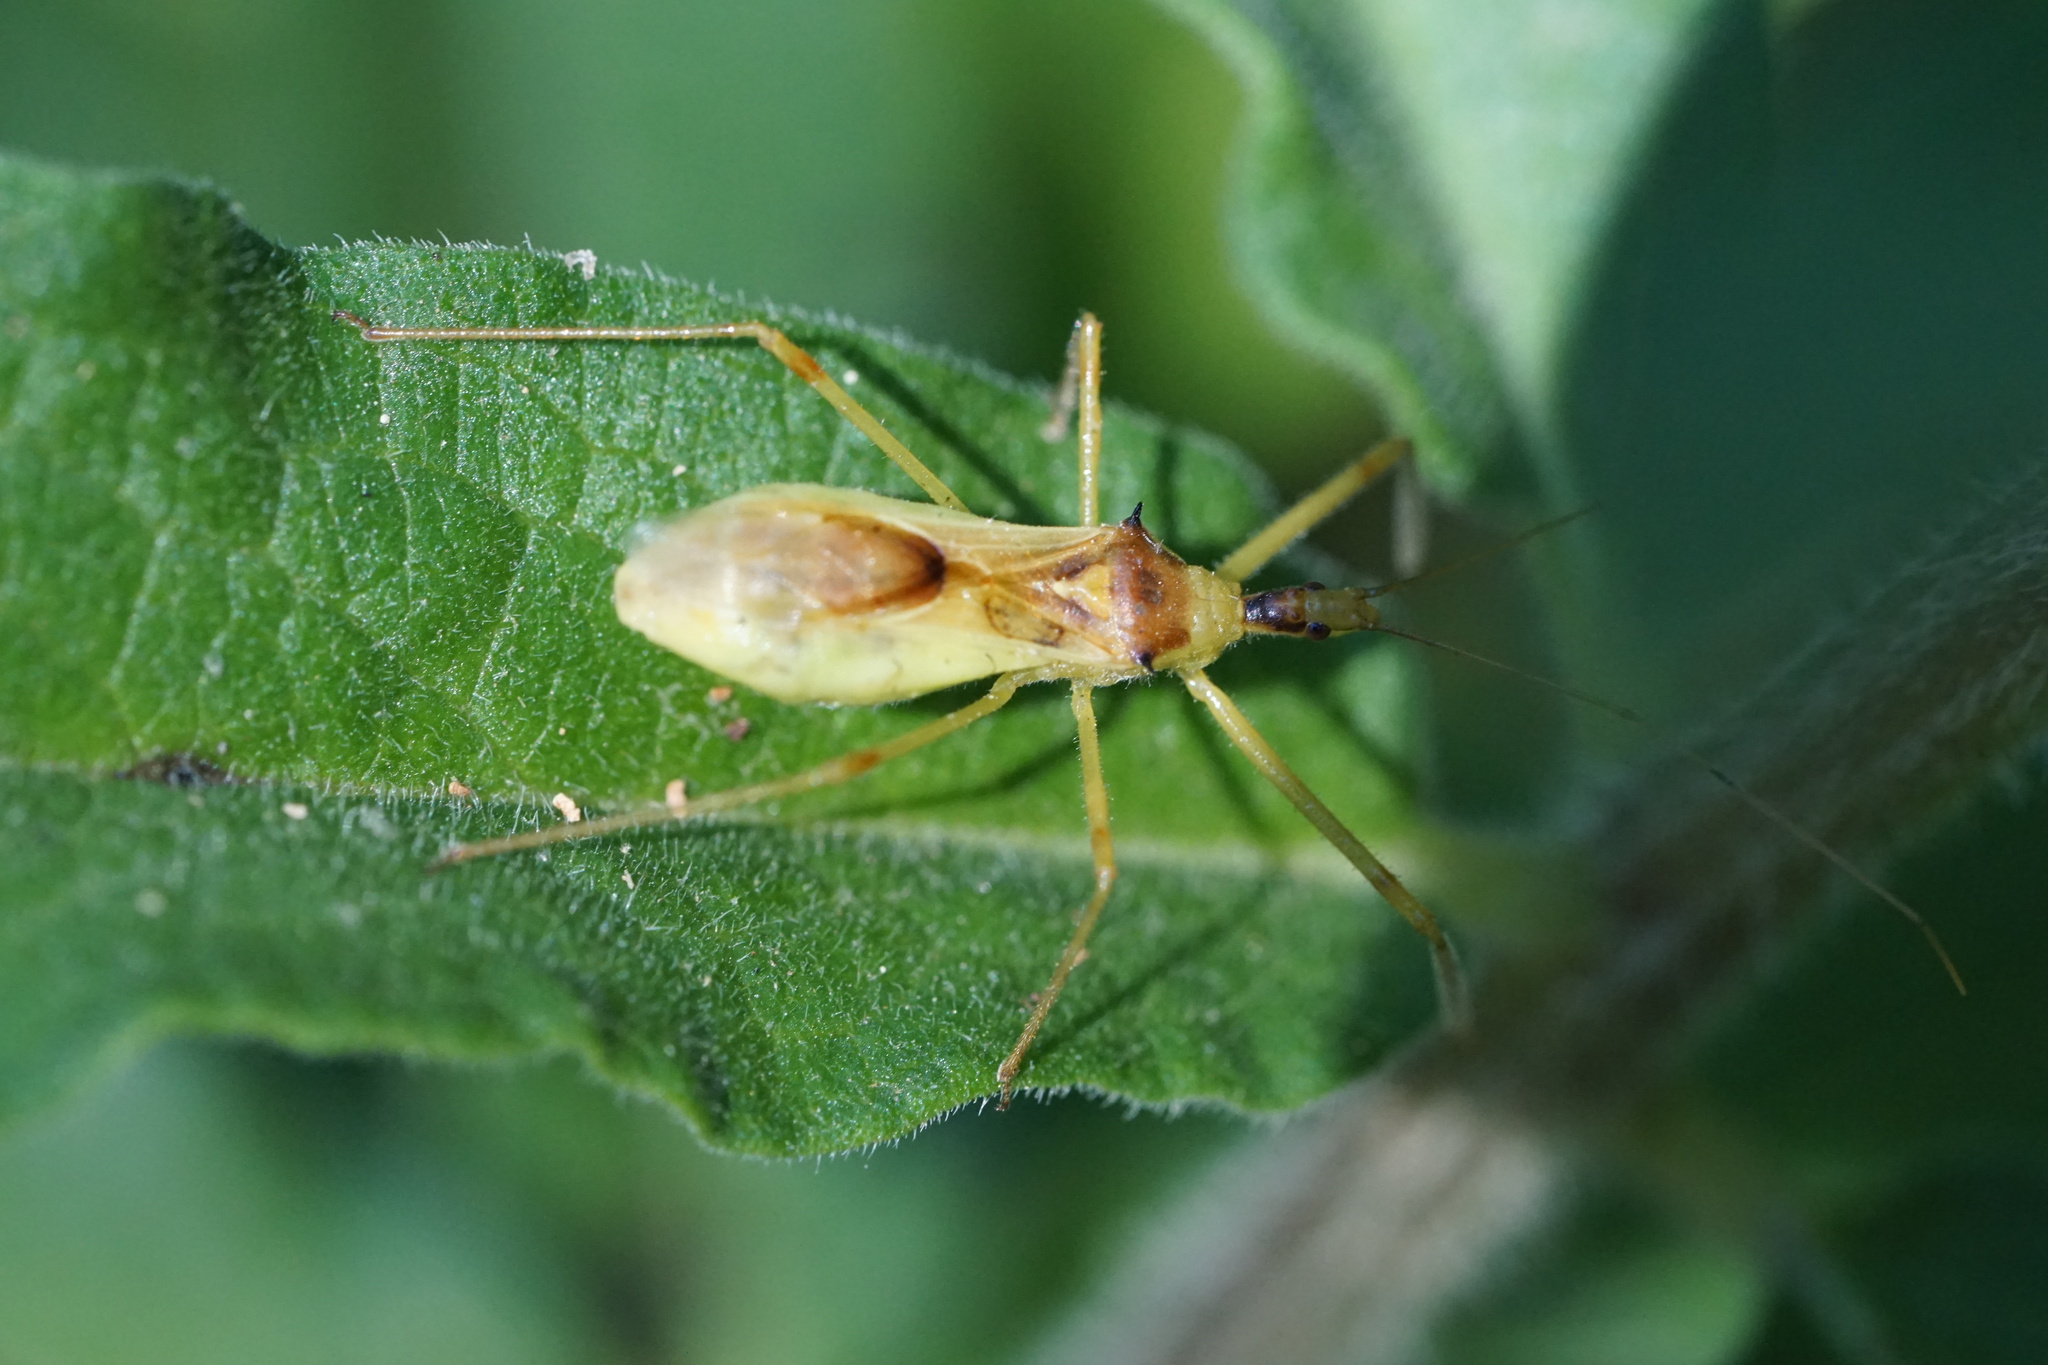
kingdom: Animalia
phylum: Arthropoda
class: Insecta
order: Hemiptera
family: Reduviidae
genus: Zelus
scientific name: Zelus luridus
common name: Pale green assassin bug
